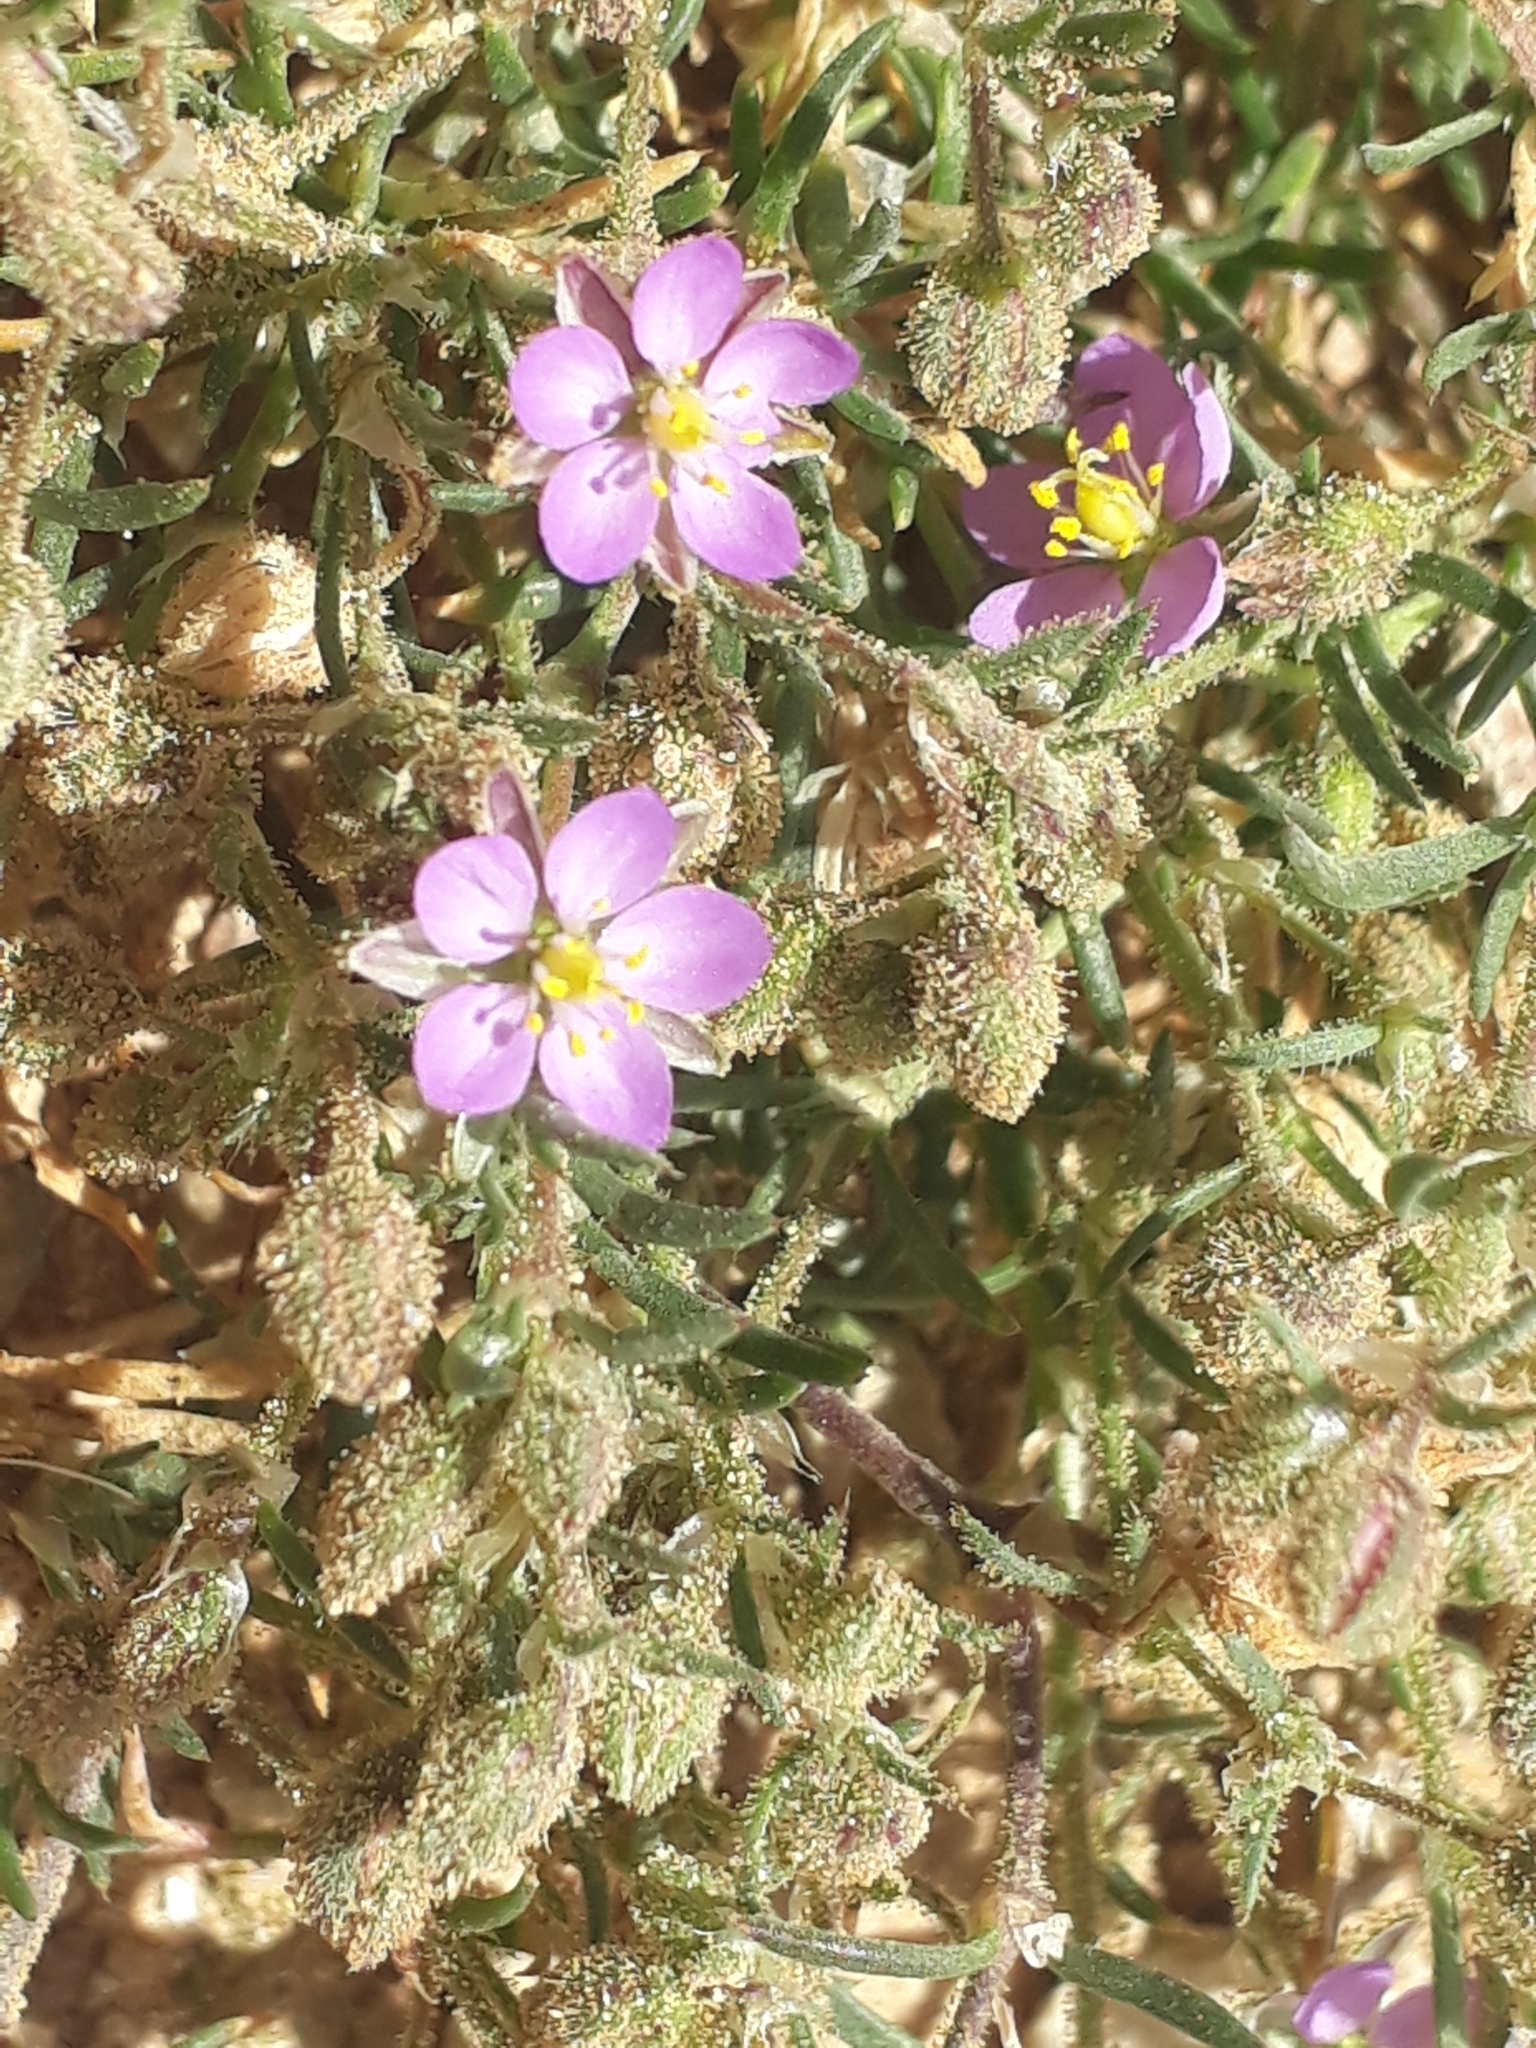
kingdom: Plantae
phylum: Tracheophyta
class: Magnoliopsida
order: Caryophyllales
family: Caryophyllaceae
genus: Spergularia
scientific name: Spergularia rubra
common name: Red sand-spurrey
